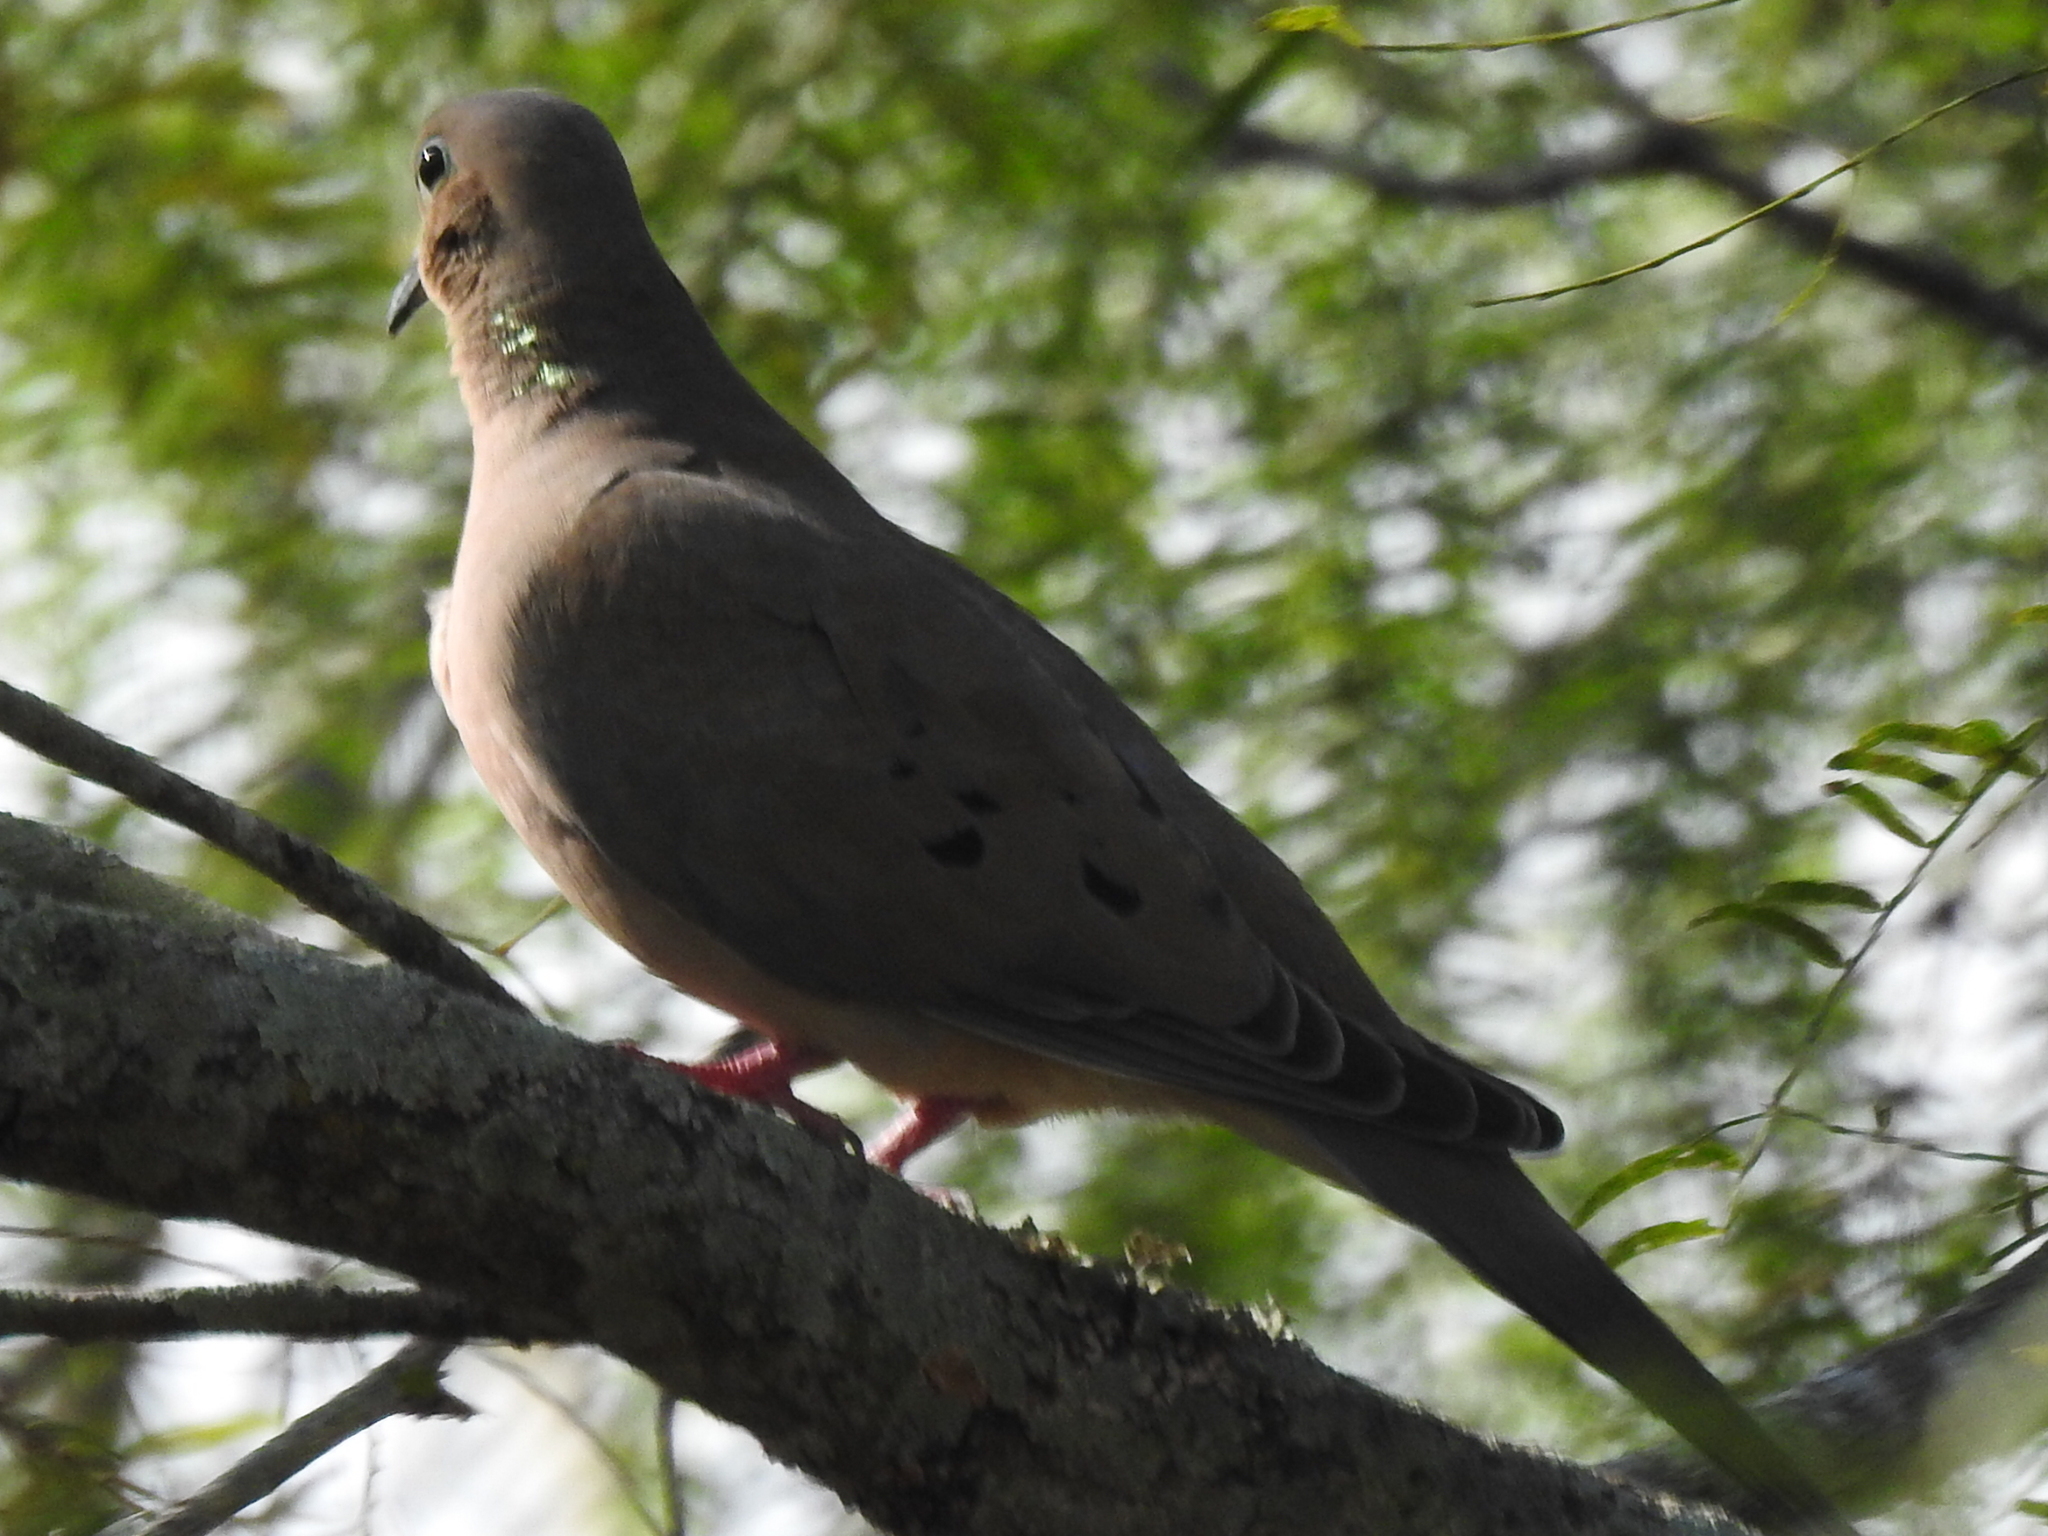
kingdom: Animalia
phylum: Chordata
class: Aves
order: Columbiformes
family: Columbidae
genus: Zenaida
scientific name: Zenaida macroura
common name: Mourning dove
